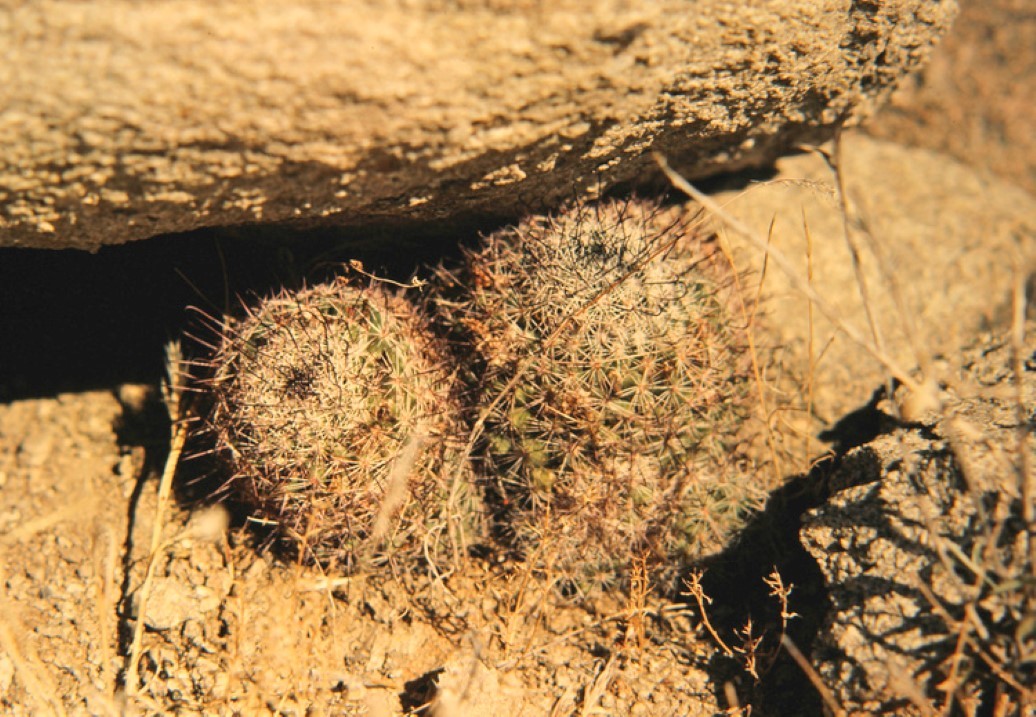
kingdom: Plantae
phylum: Tracheophyta
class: Magnoliopsida
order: Caryophyllales
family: Cactaceae
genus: Cochemiea
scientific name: Cochemiea dioica
